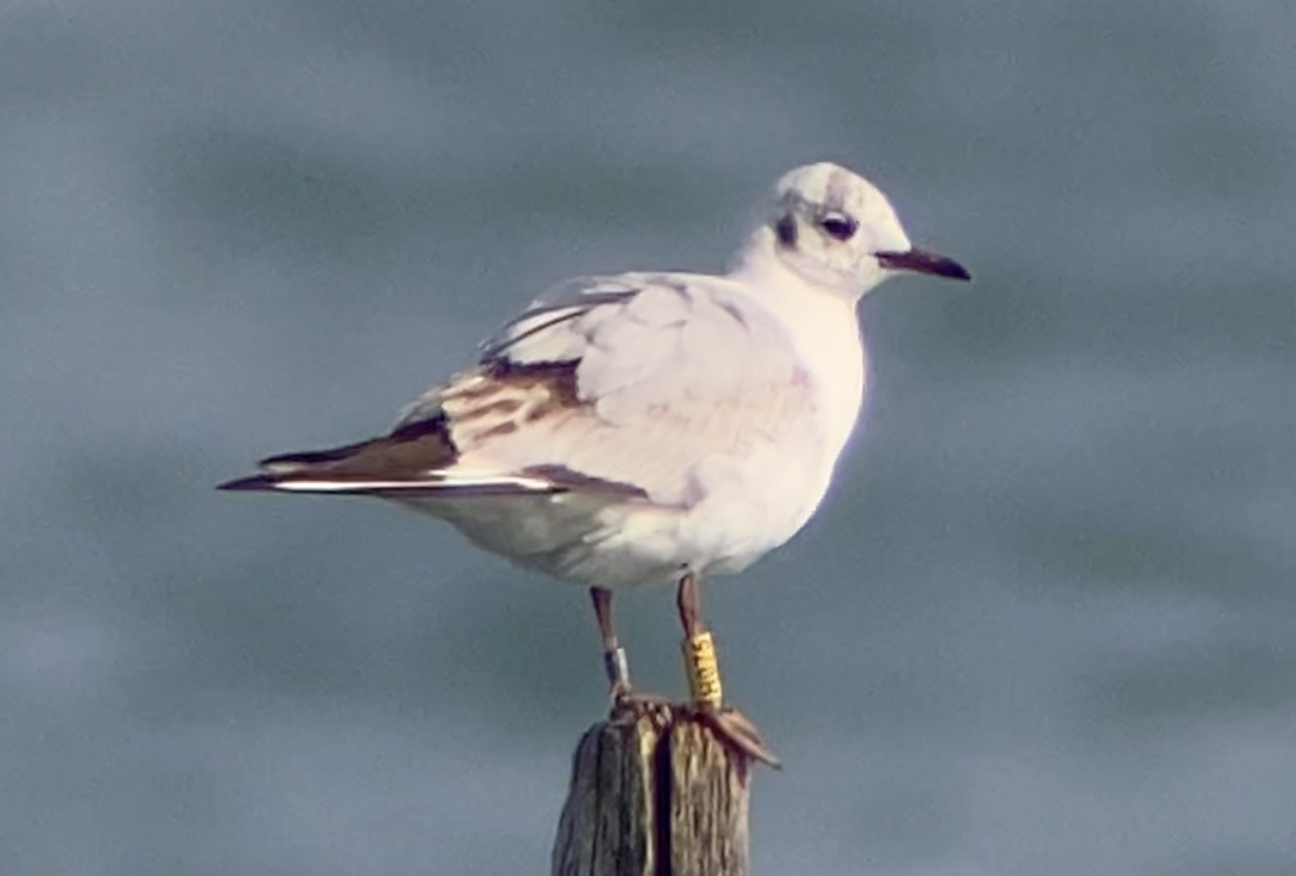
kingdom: Animalia
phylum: Chordata
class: Aves
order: Charadriiformes
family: Laridae
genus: Chroicocephalus
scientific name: Chroicocephalus ridibundus
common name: Black-headed gull
